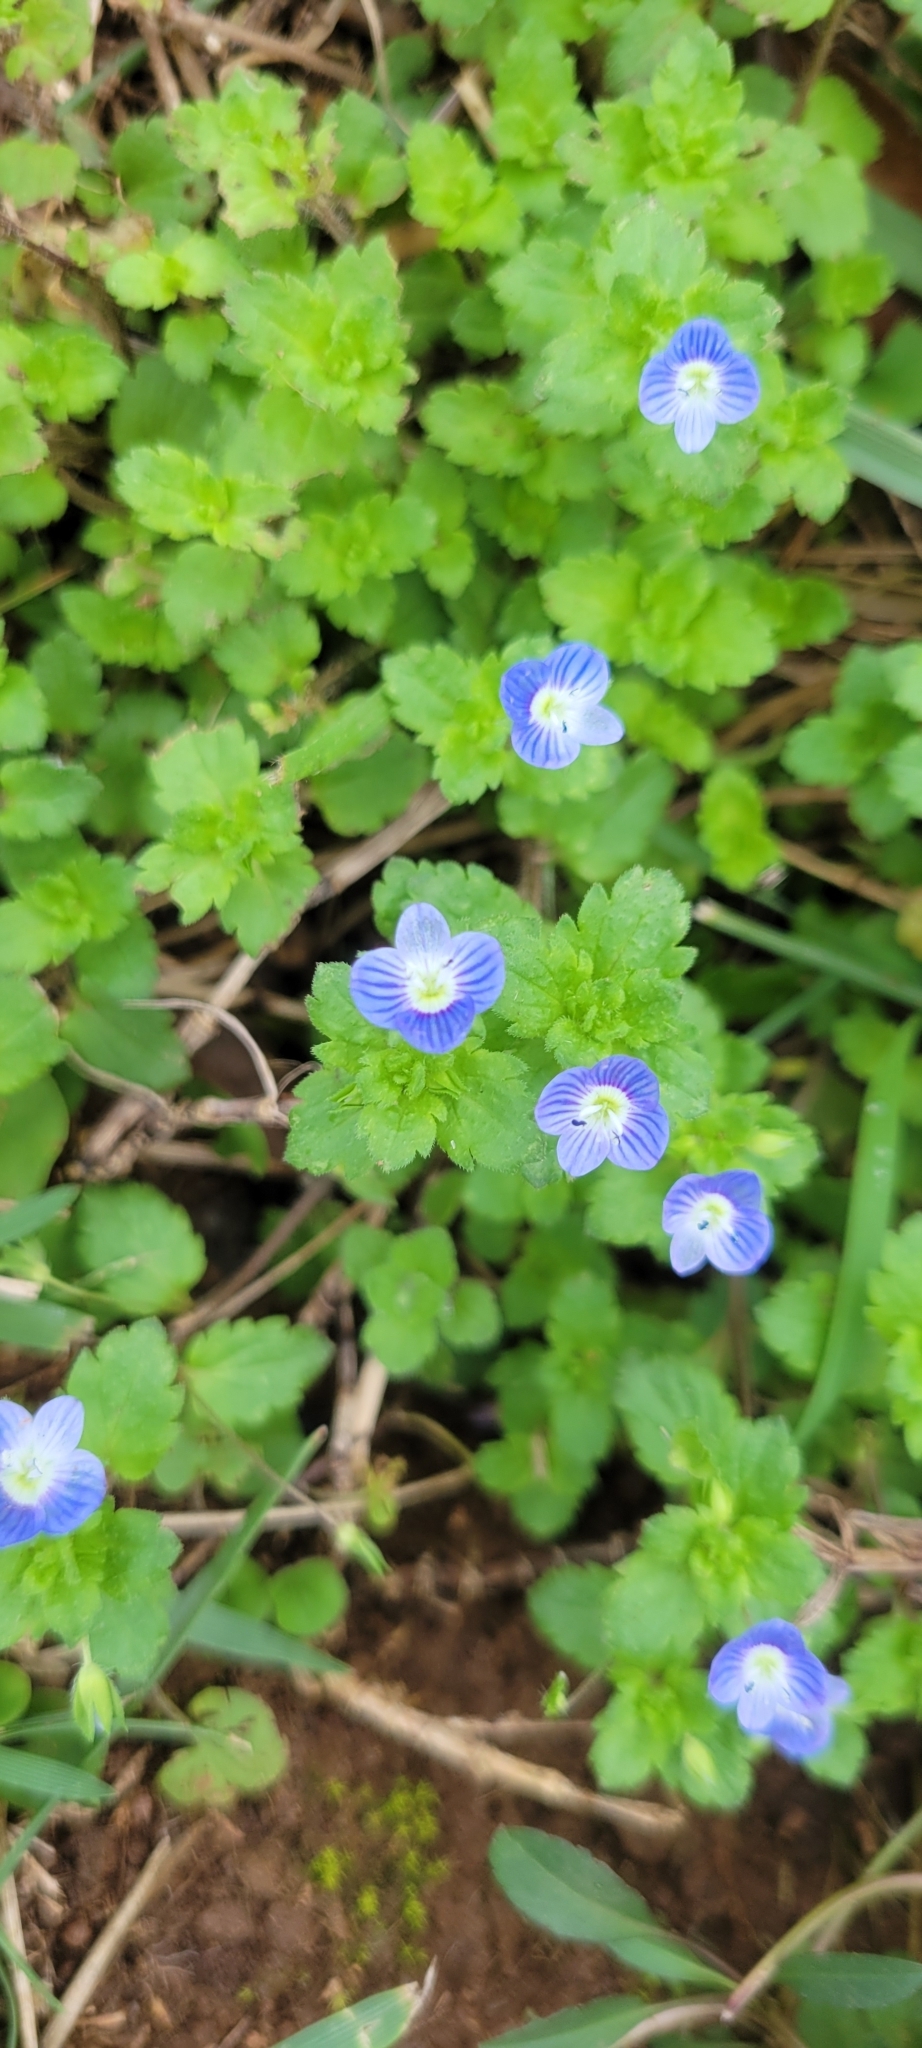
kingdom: Plantae
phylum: Tracheophyta
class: Magnoliopsida
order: Lamiales
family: Plantaginaceae
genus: Veronica
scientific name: Veronica persica
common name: Common field-speedwell
